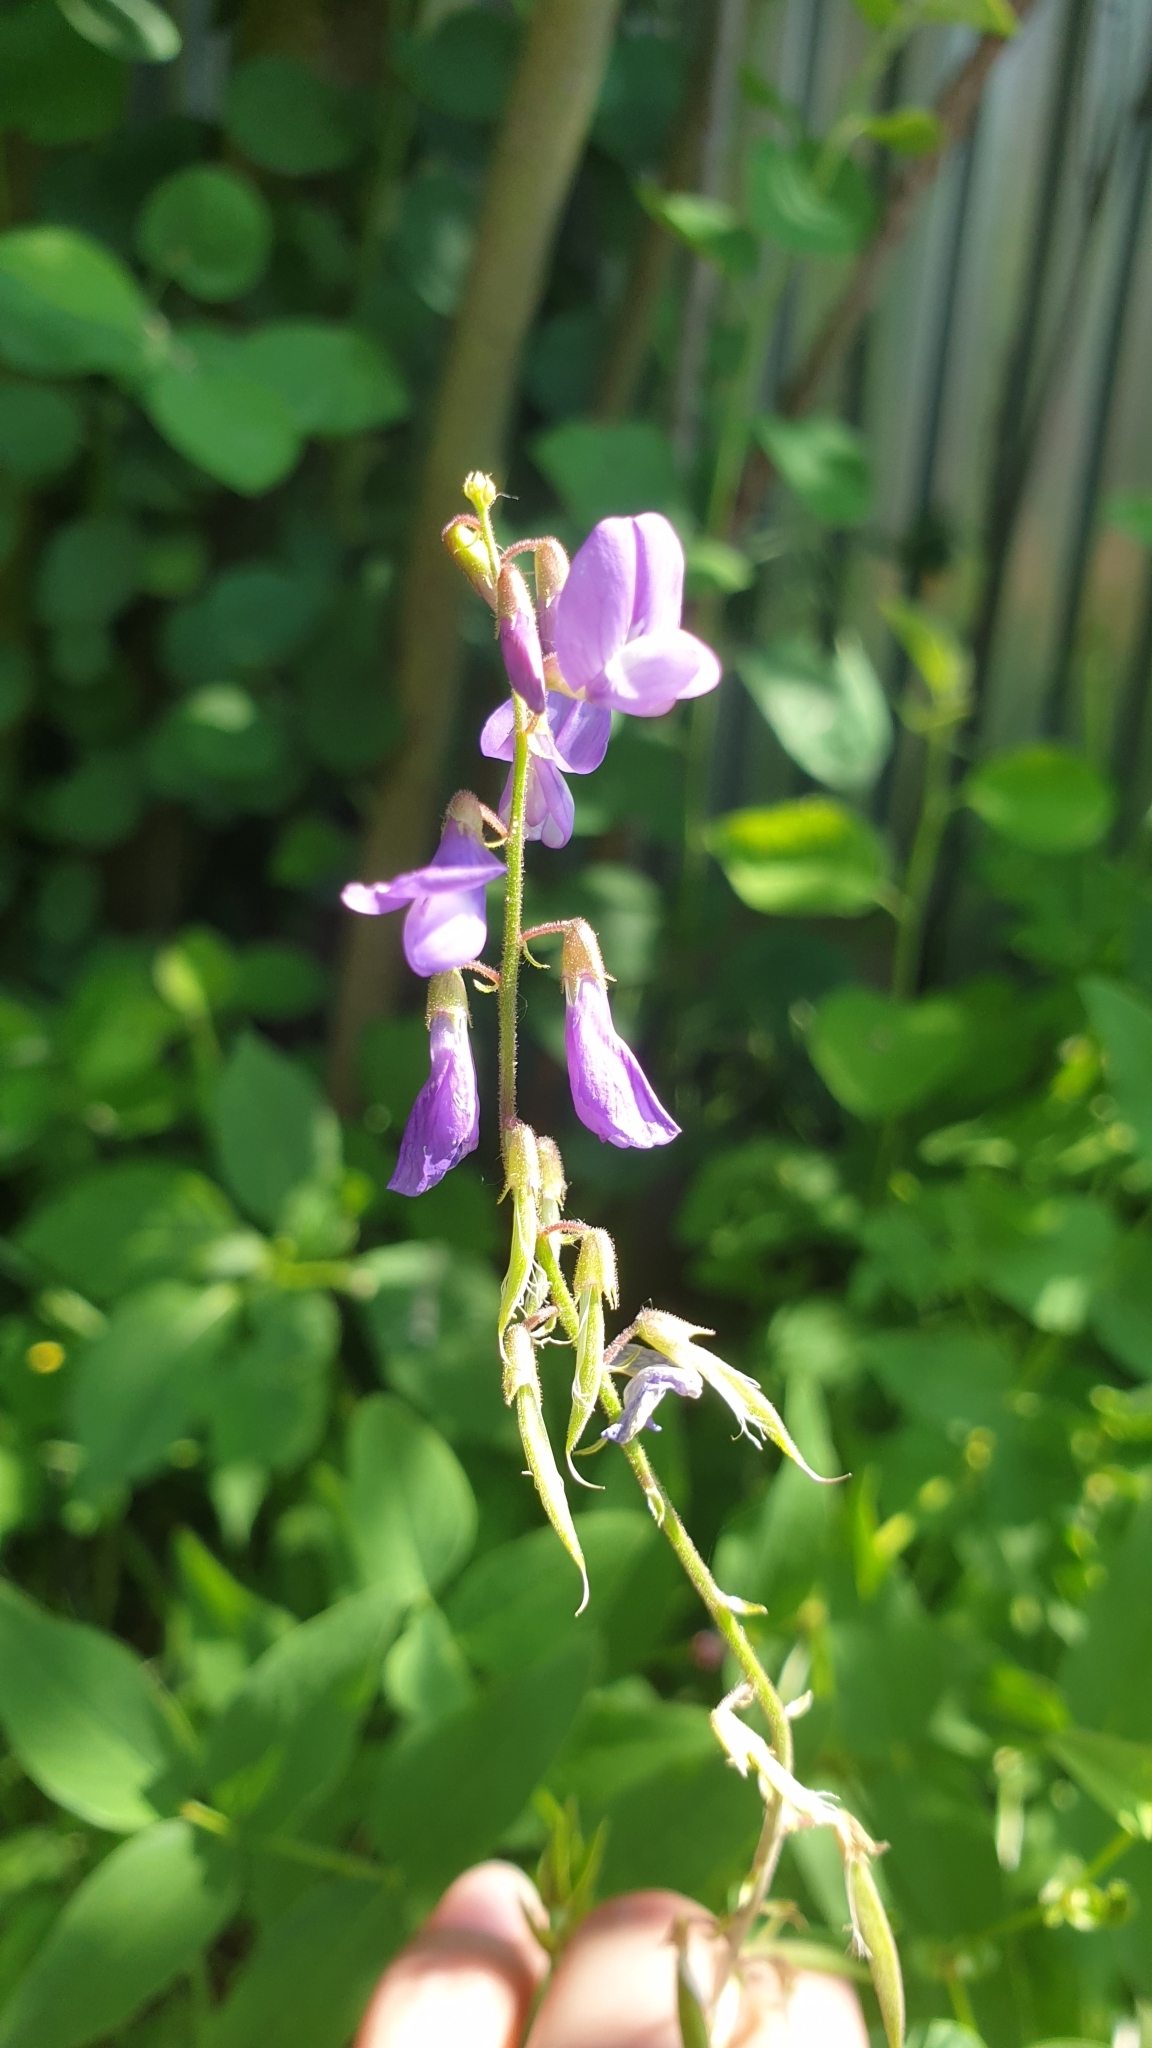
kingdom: Plantae
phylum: Tracheophyta
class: Magnoliopsida
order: Fabales
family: Fabaceae
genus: Galega
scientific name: Galega orientalis
